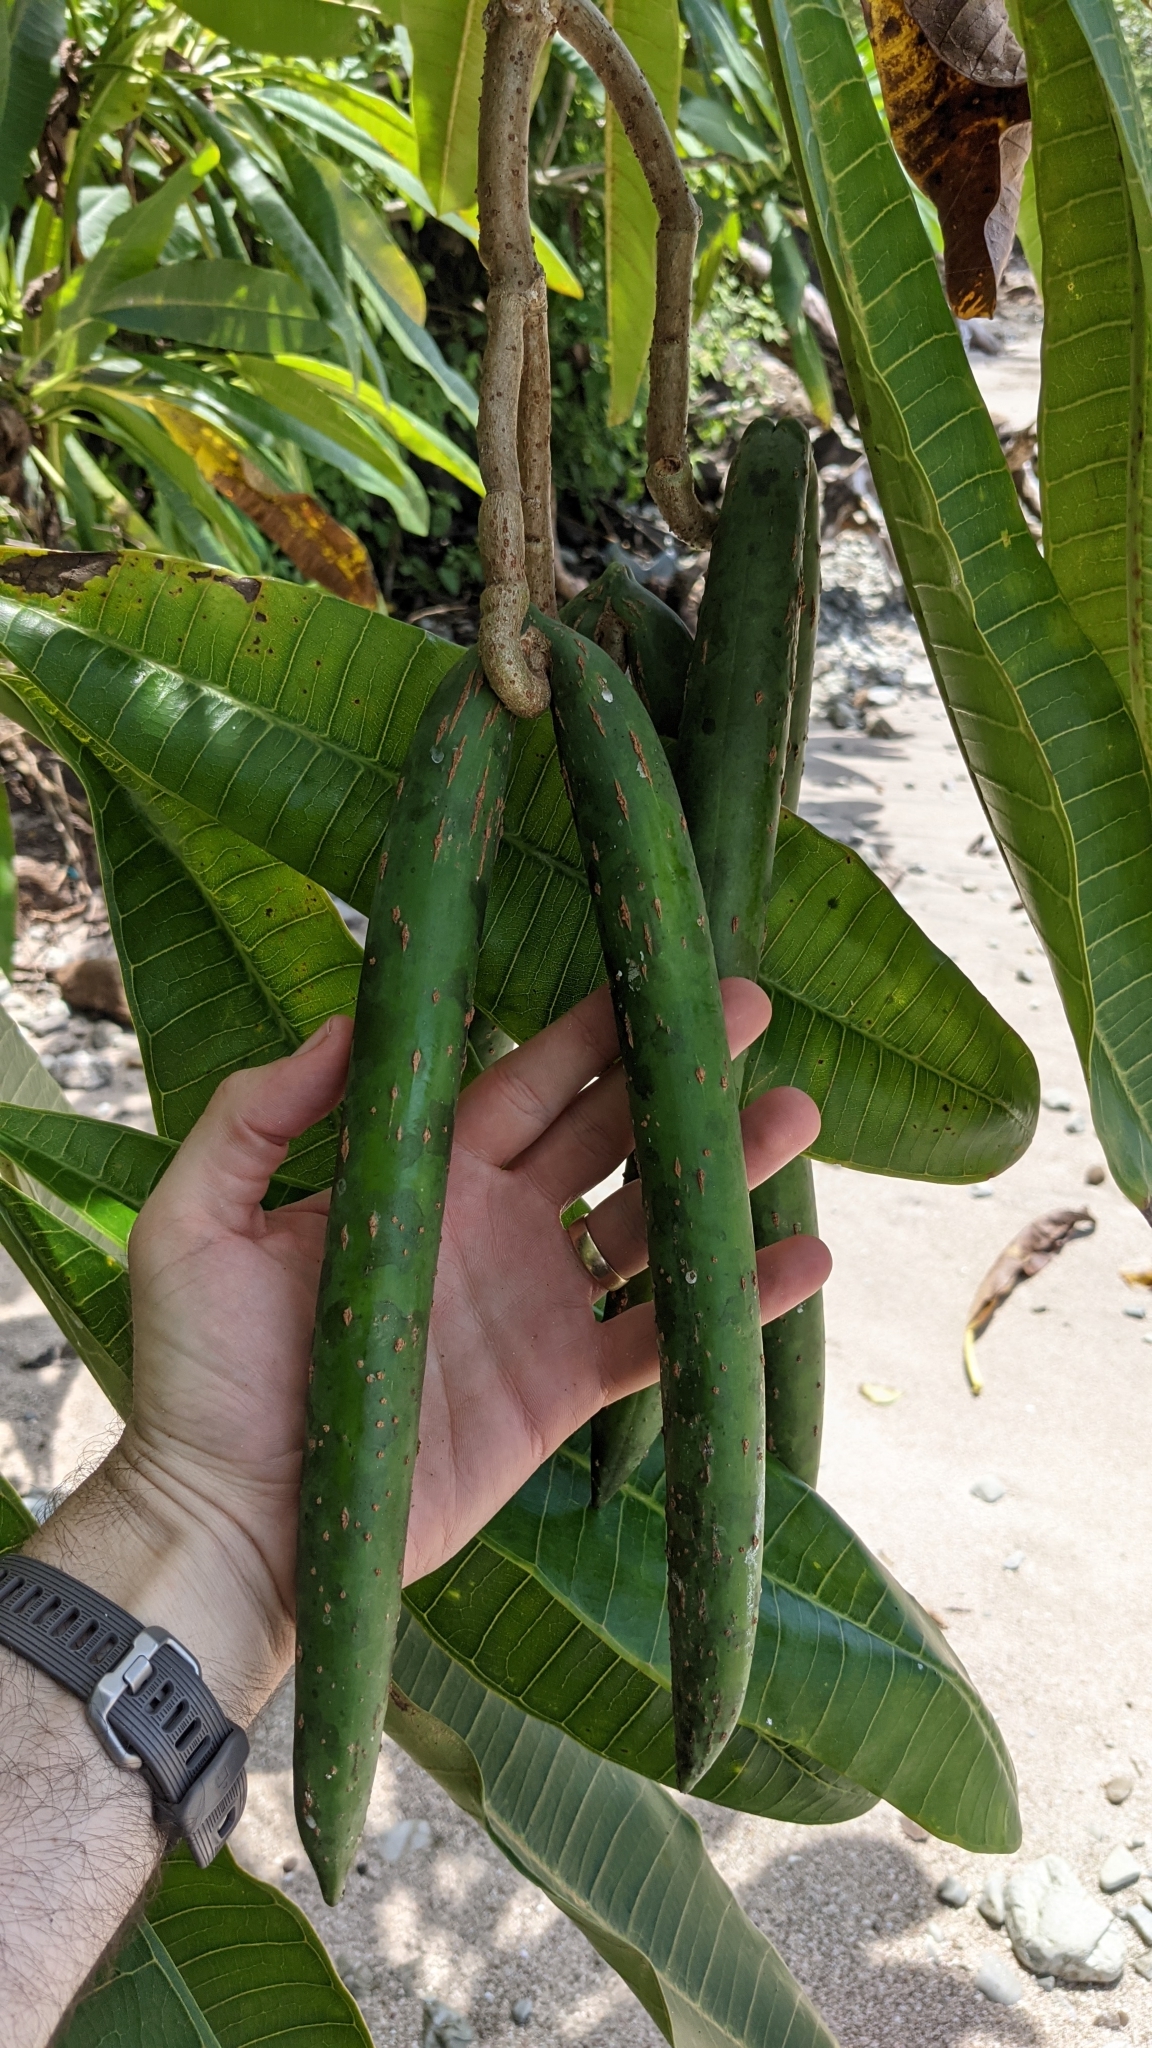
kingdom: Plantae
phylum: Tracheophyta
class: Magnoliopsida
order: Gentianales
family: Apocynaceae
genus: Plumeria
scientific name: Plumeria rubra
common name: Pagoda-tree
